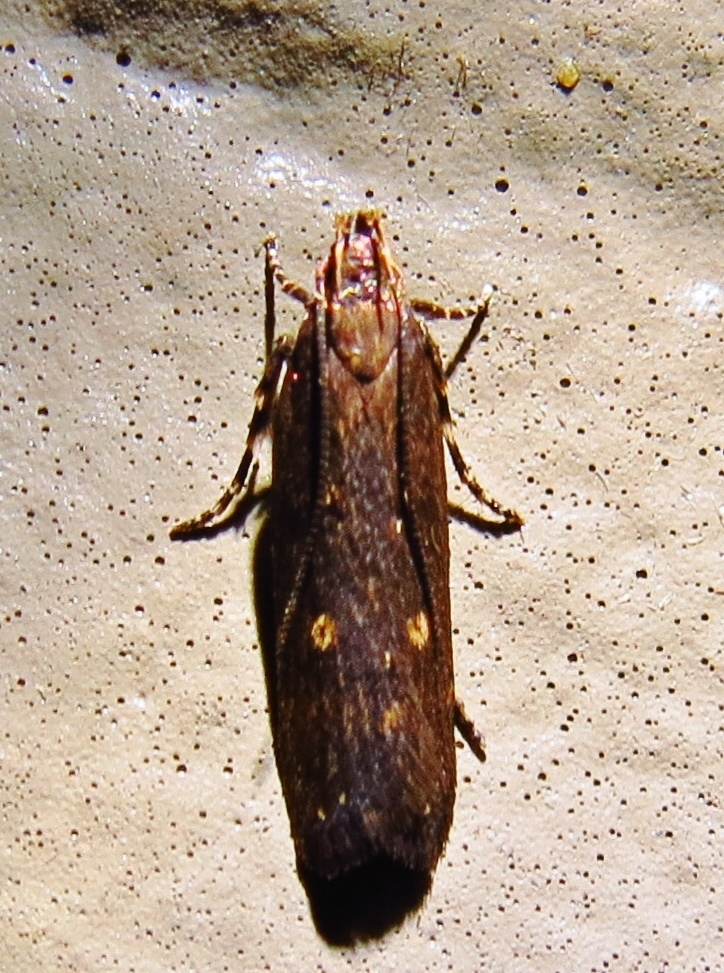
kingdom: Animalia
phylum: Arthropoda
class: Insecta
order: Lepidoptera
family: Gelechiidae
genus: Chionodes
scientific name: Chionodes discoocellella
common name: Eye-ringed chionodes moth
